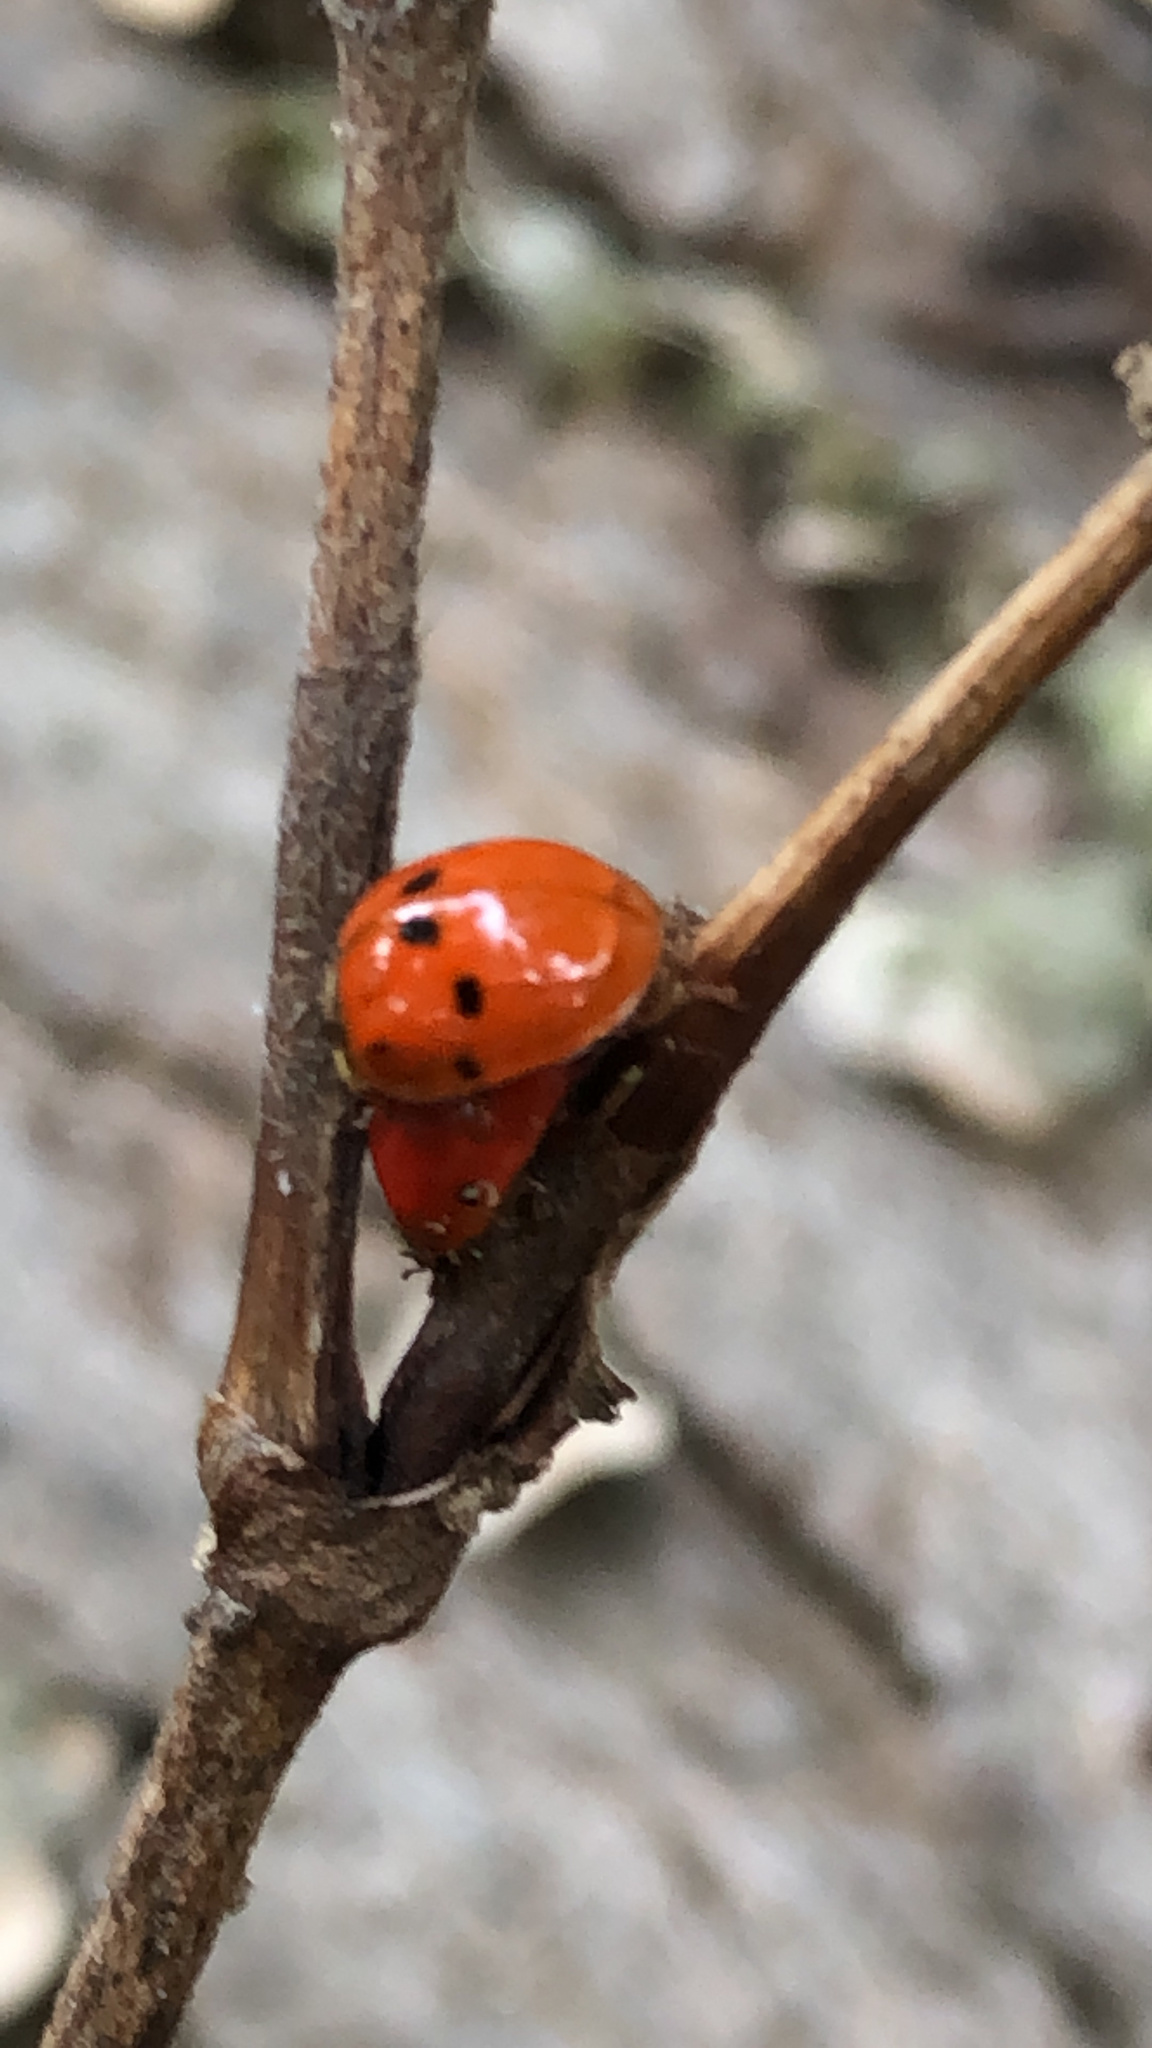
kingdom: Animalia
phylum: Arthropoda
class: Insecta
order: Coleoptera
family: Coccinellidae
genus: Harmonia
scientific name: Harmonia axyridis
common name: Harlequin ladybird
